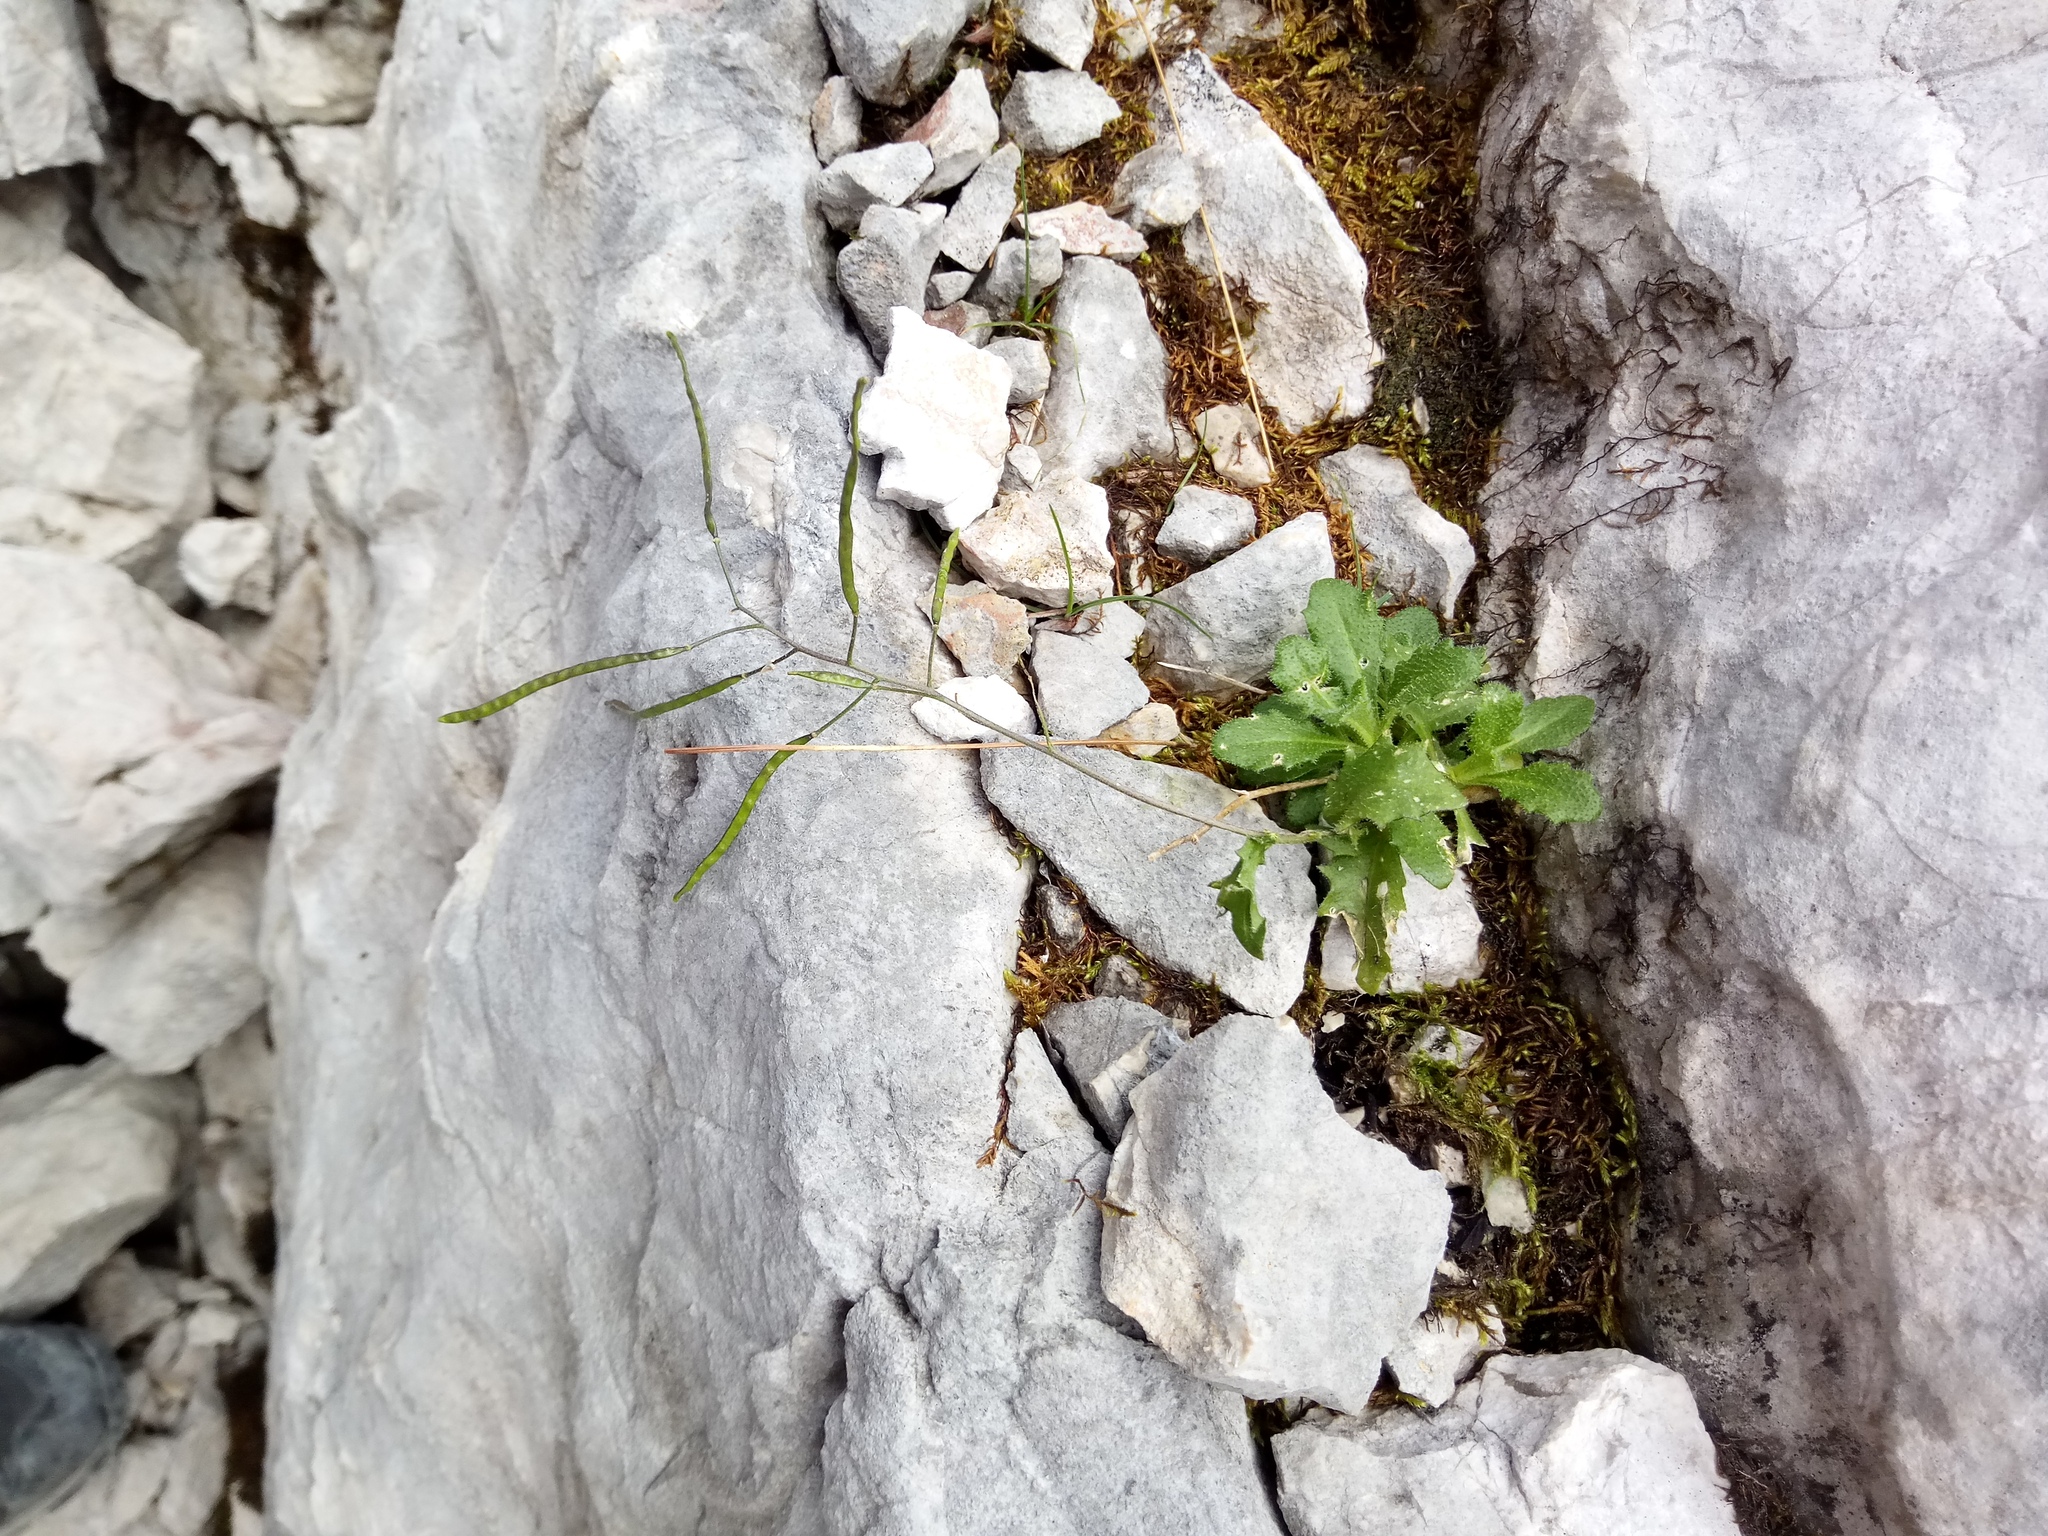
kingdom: Plantae
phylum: Tracheophyta
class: Magnoliopsida
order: Brassicales
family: Brassicaceae
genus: Arabis
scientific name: Arabis alpina
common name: Alpine rock-cress
